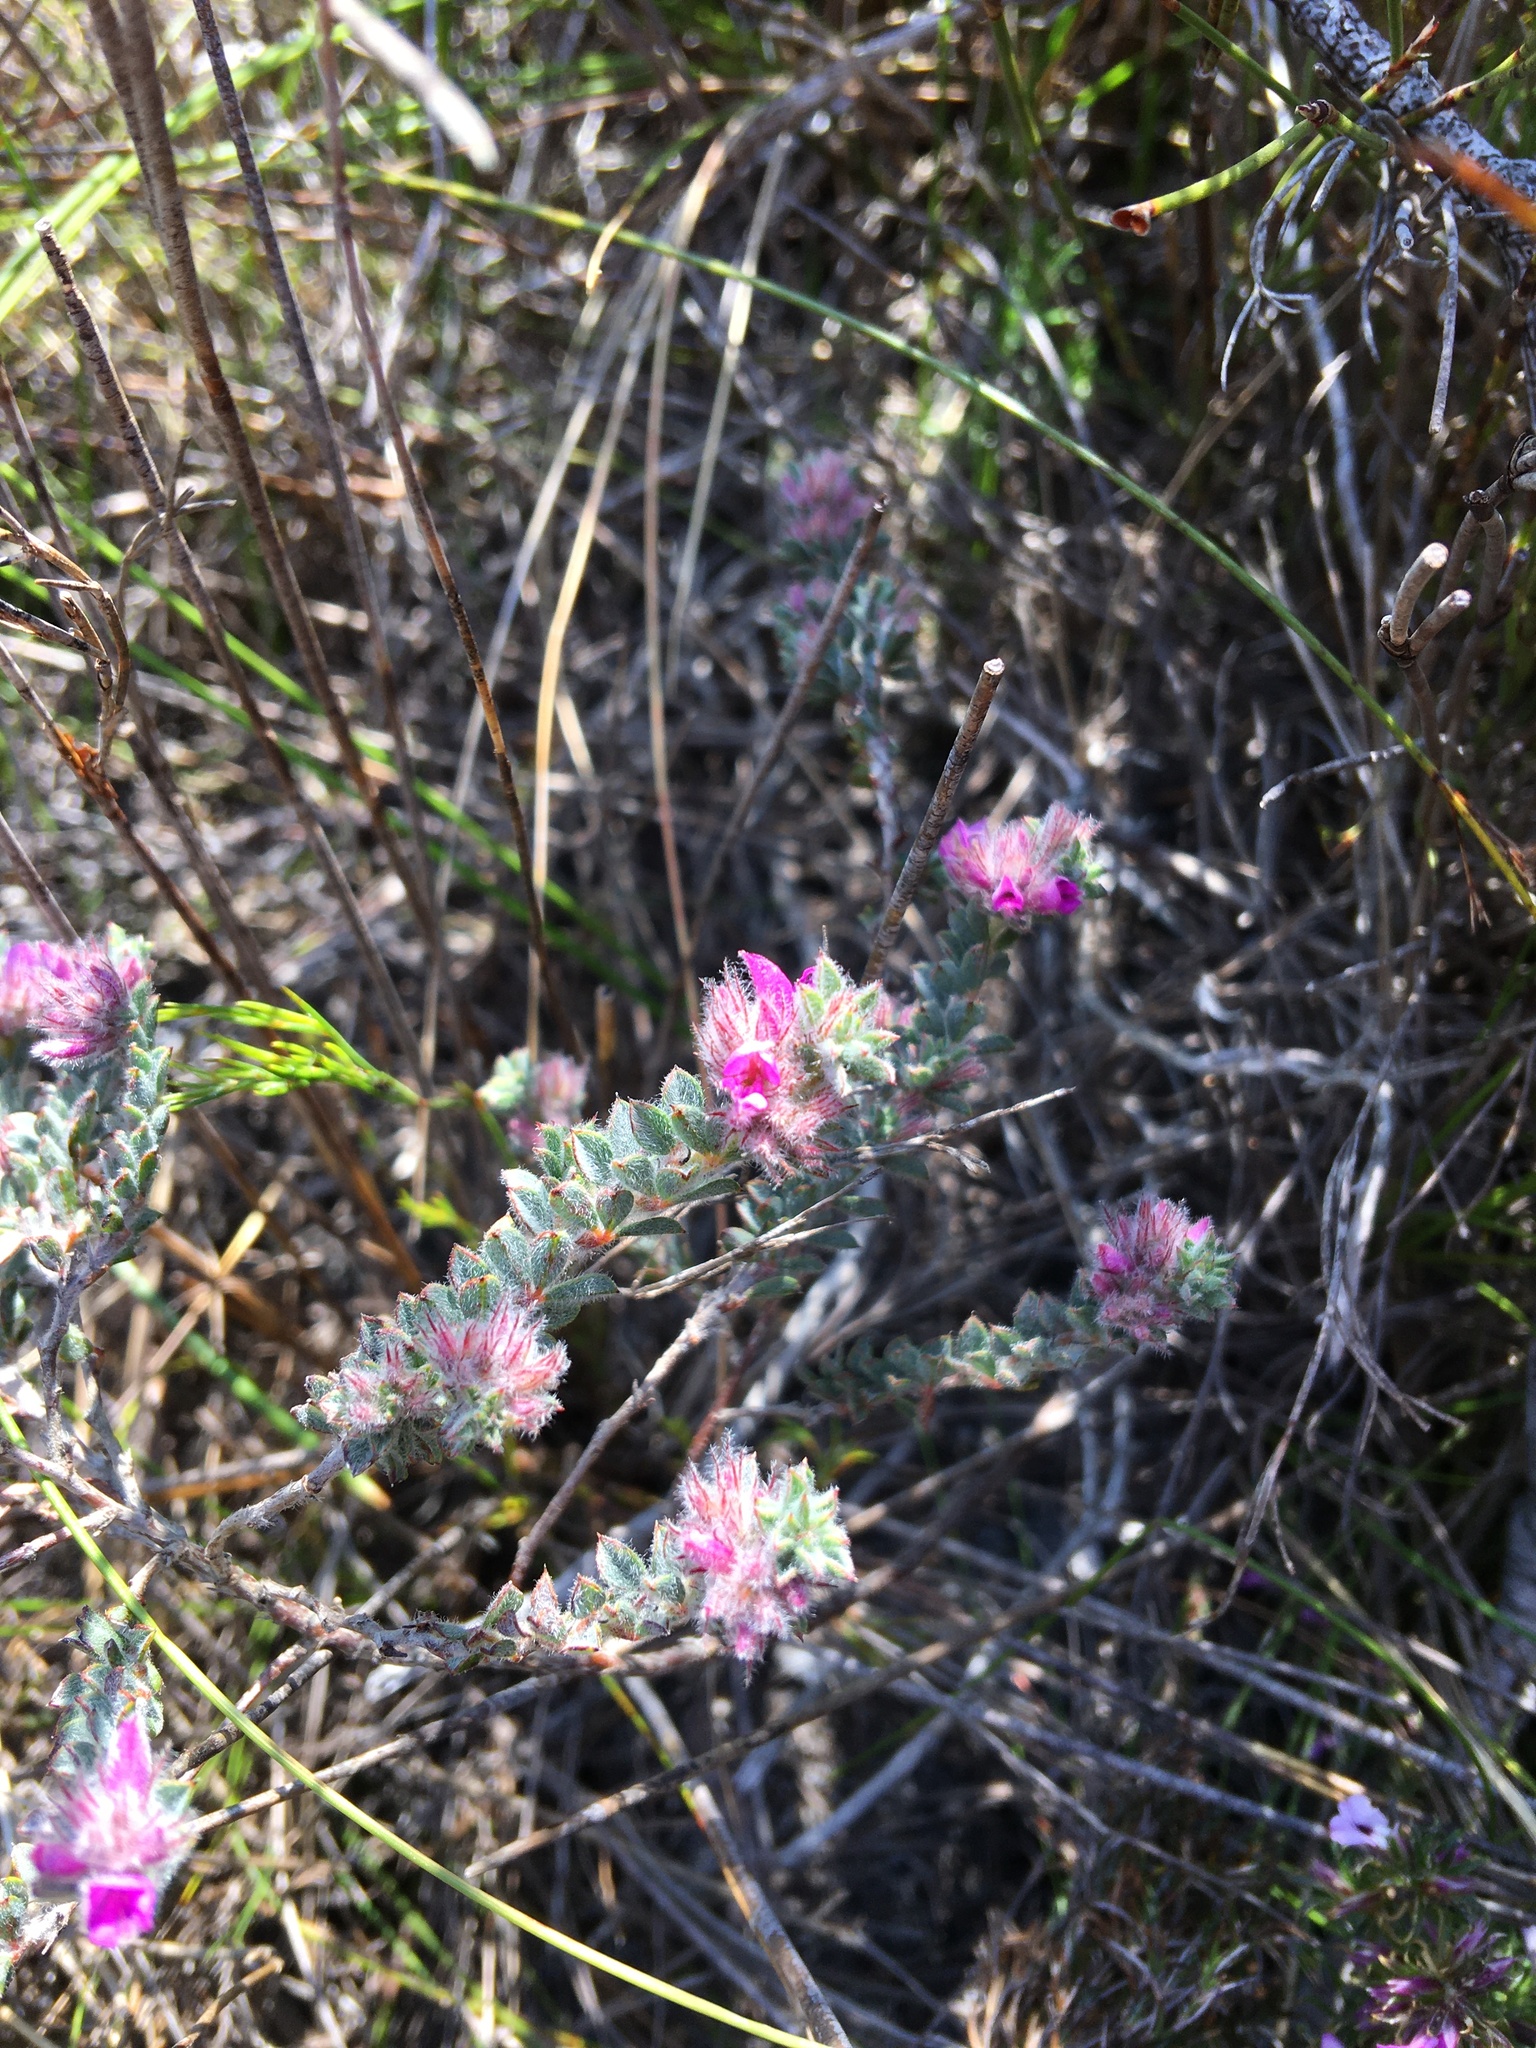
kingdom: Plantae
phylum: Tracheophyta
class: Magnoliopsida
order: Fabales
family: Fabaceae
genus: Indigofera
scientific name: Indigofera glomerata
